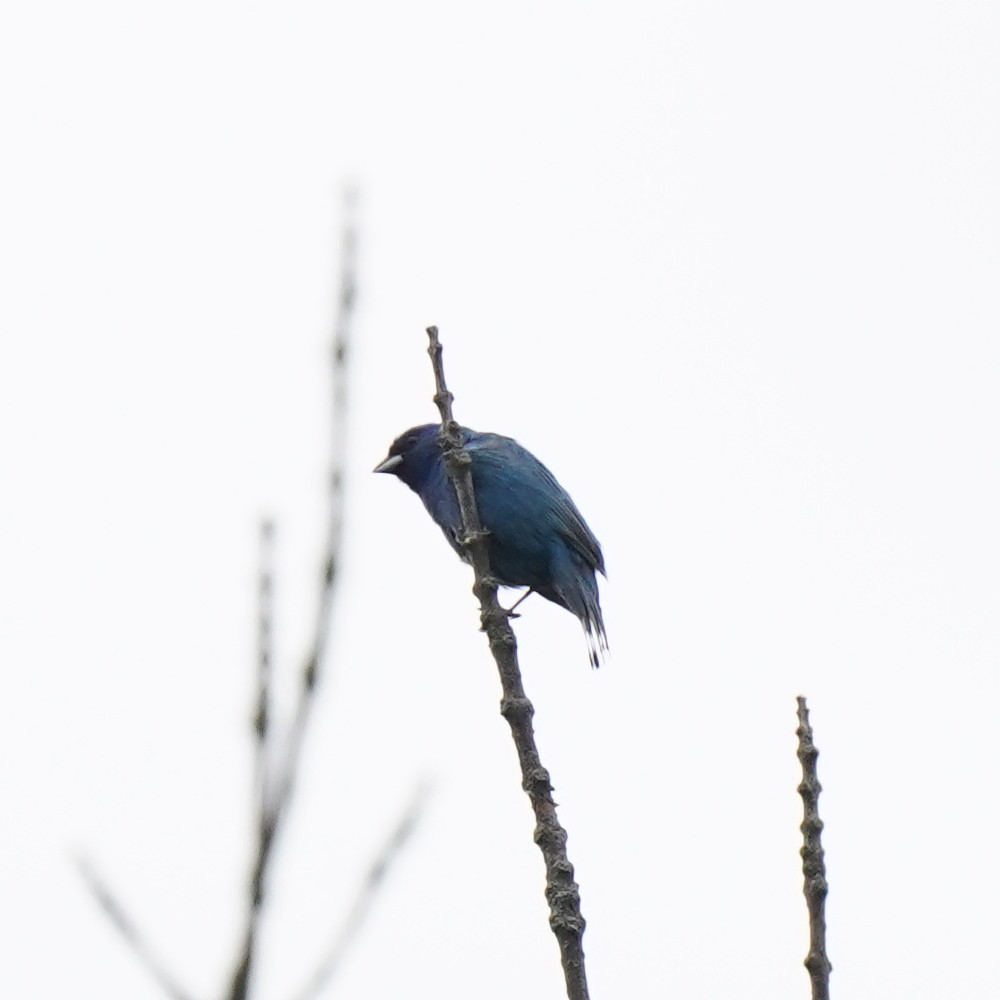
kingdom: Animalia
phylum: Chordata
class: Aves
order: Passeriformes
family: Cardinalidae
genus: Passerina
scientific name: Passerina cyanea
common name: Indigo bunting
